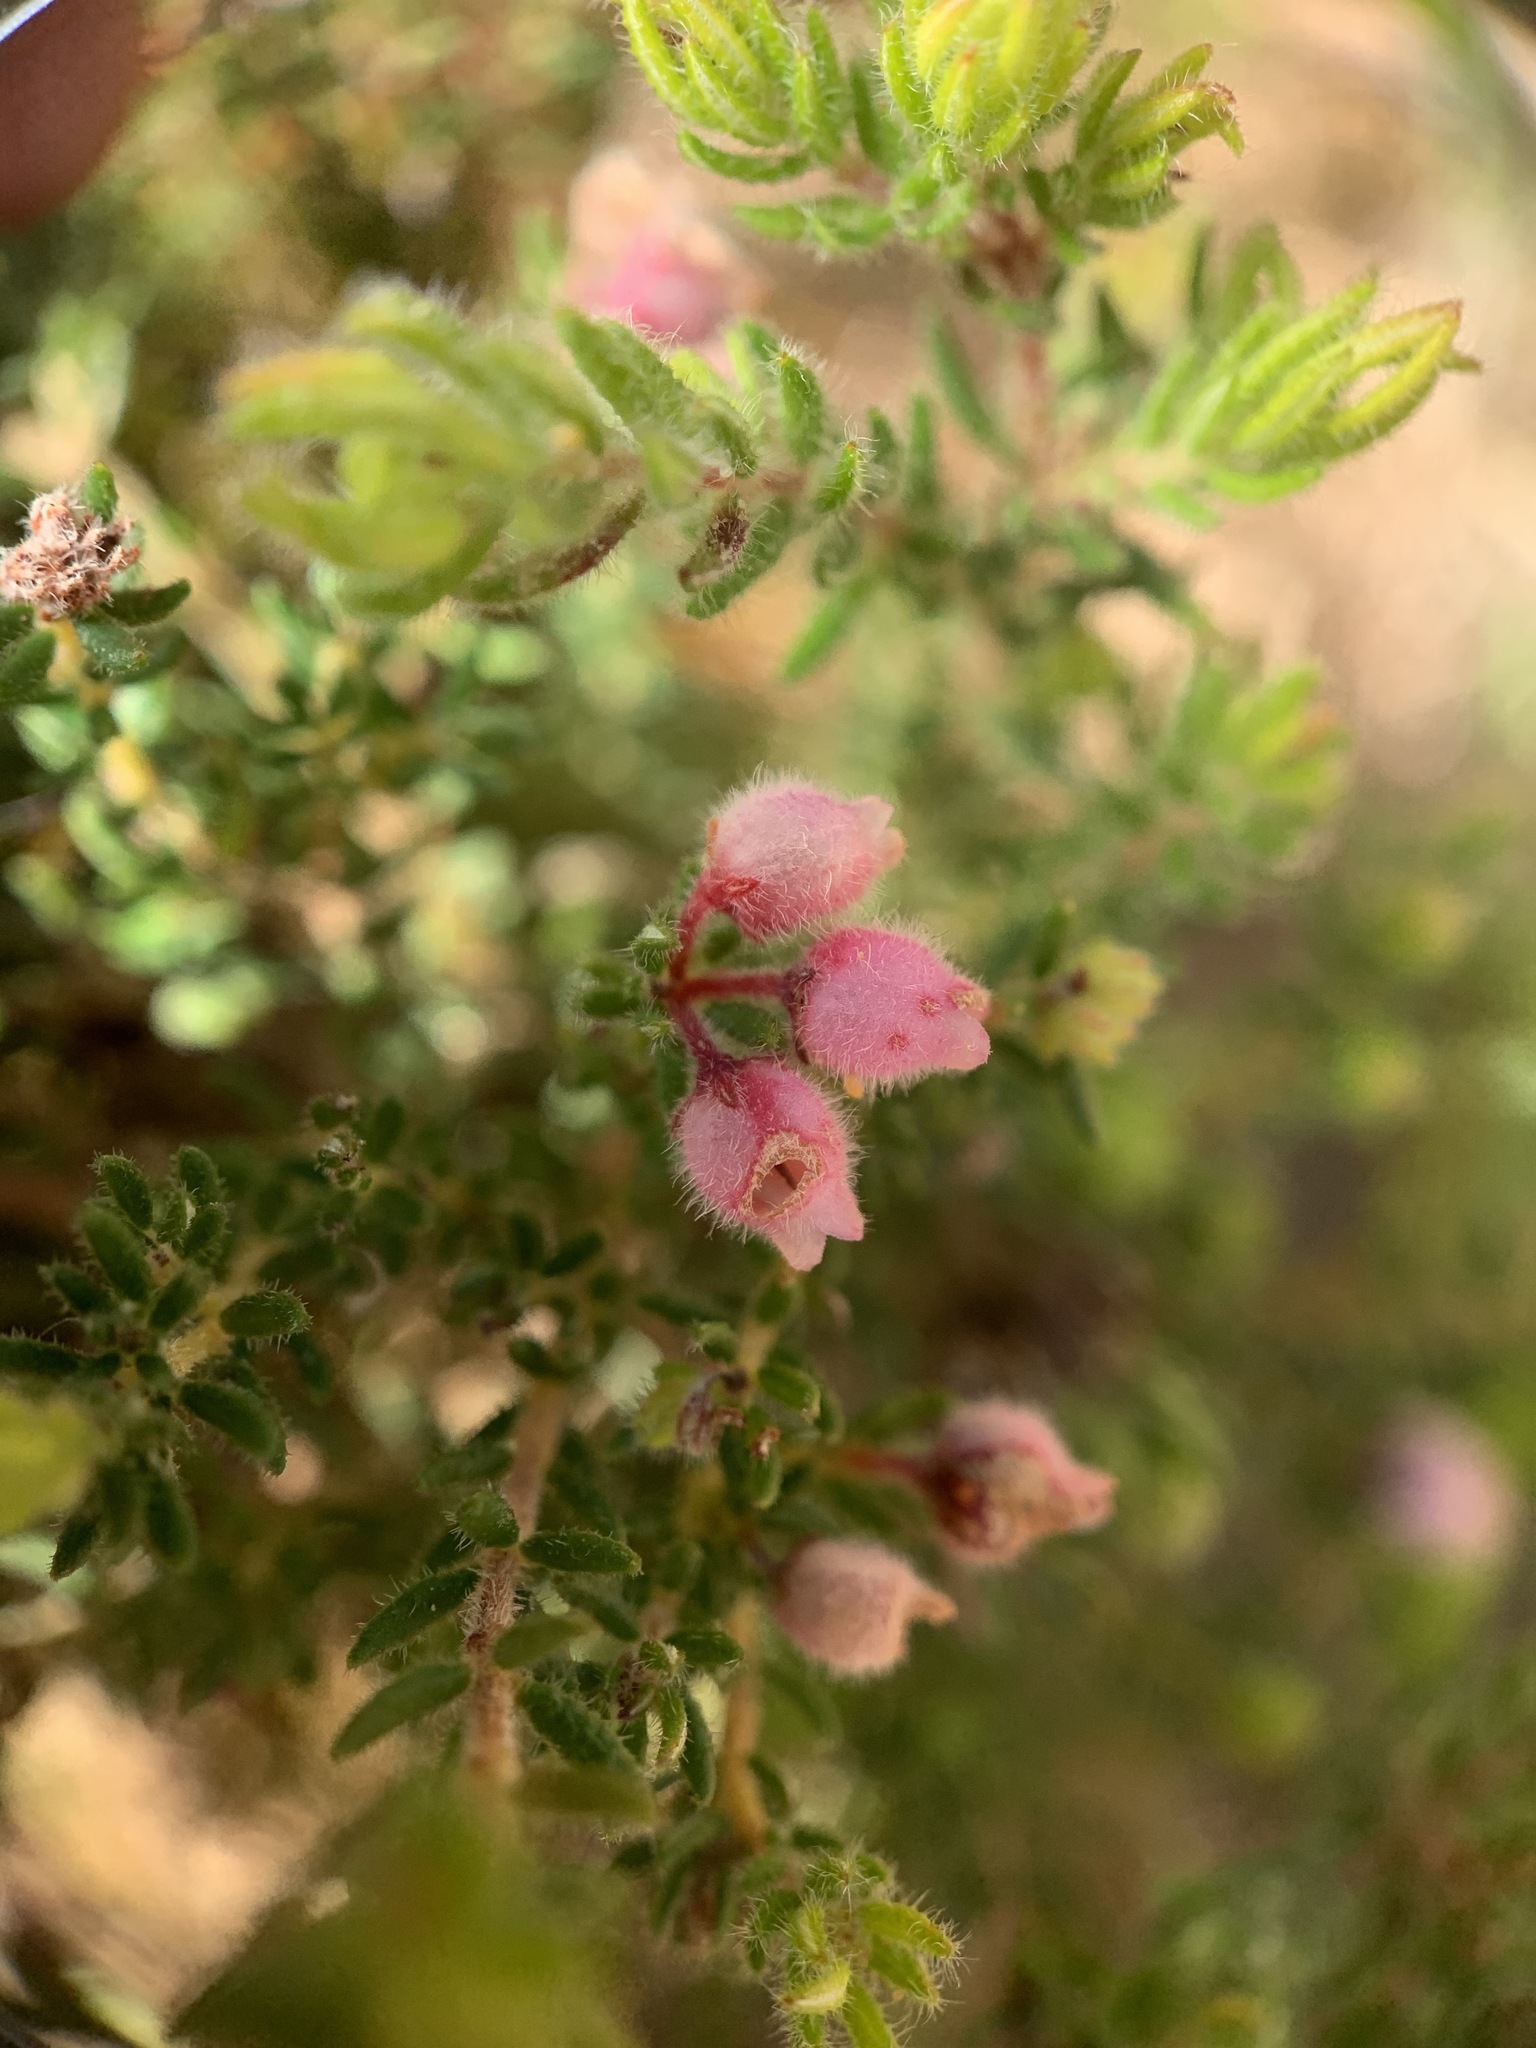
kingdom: Plantae
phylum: Tracheophyta
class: Magnoliopsida
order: Ericales
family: Ericaceae
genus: Erica
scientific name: Erica hirtiflora
